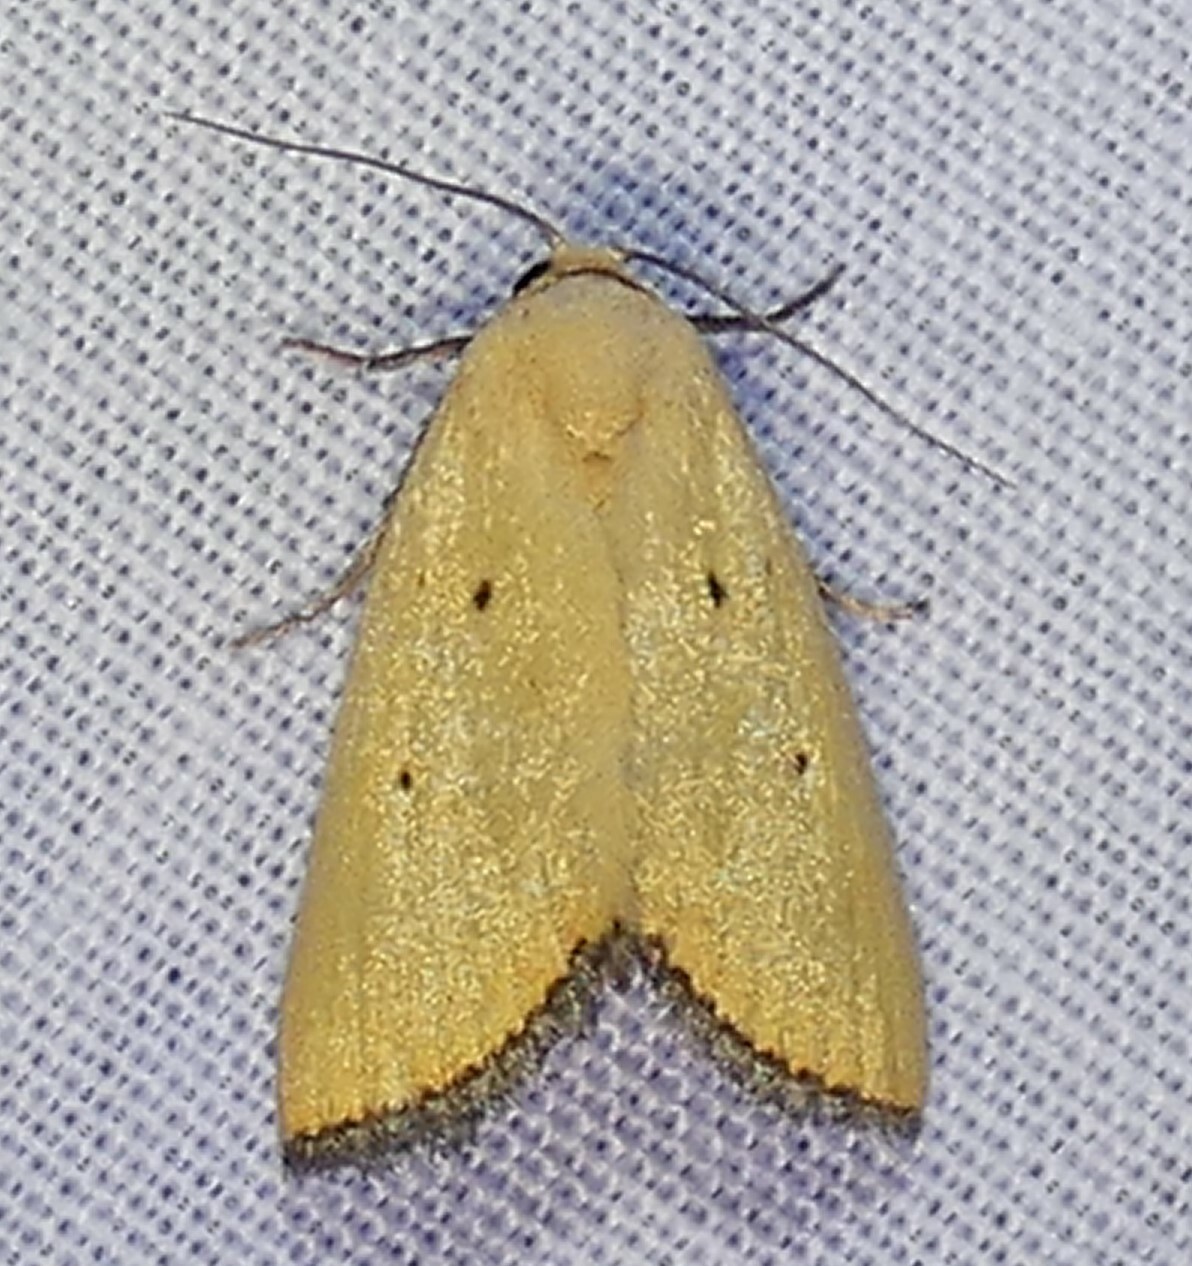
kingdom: Animalia
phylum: Arthropoda
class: Insecta
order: Lepidoptera
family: Noctuidae
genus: Marimatha
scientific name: Marimatha nigrofimbria
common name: Black-bordered lemon moth
